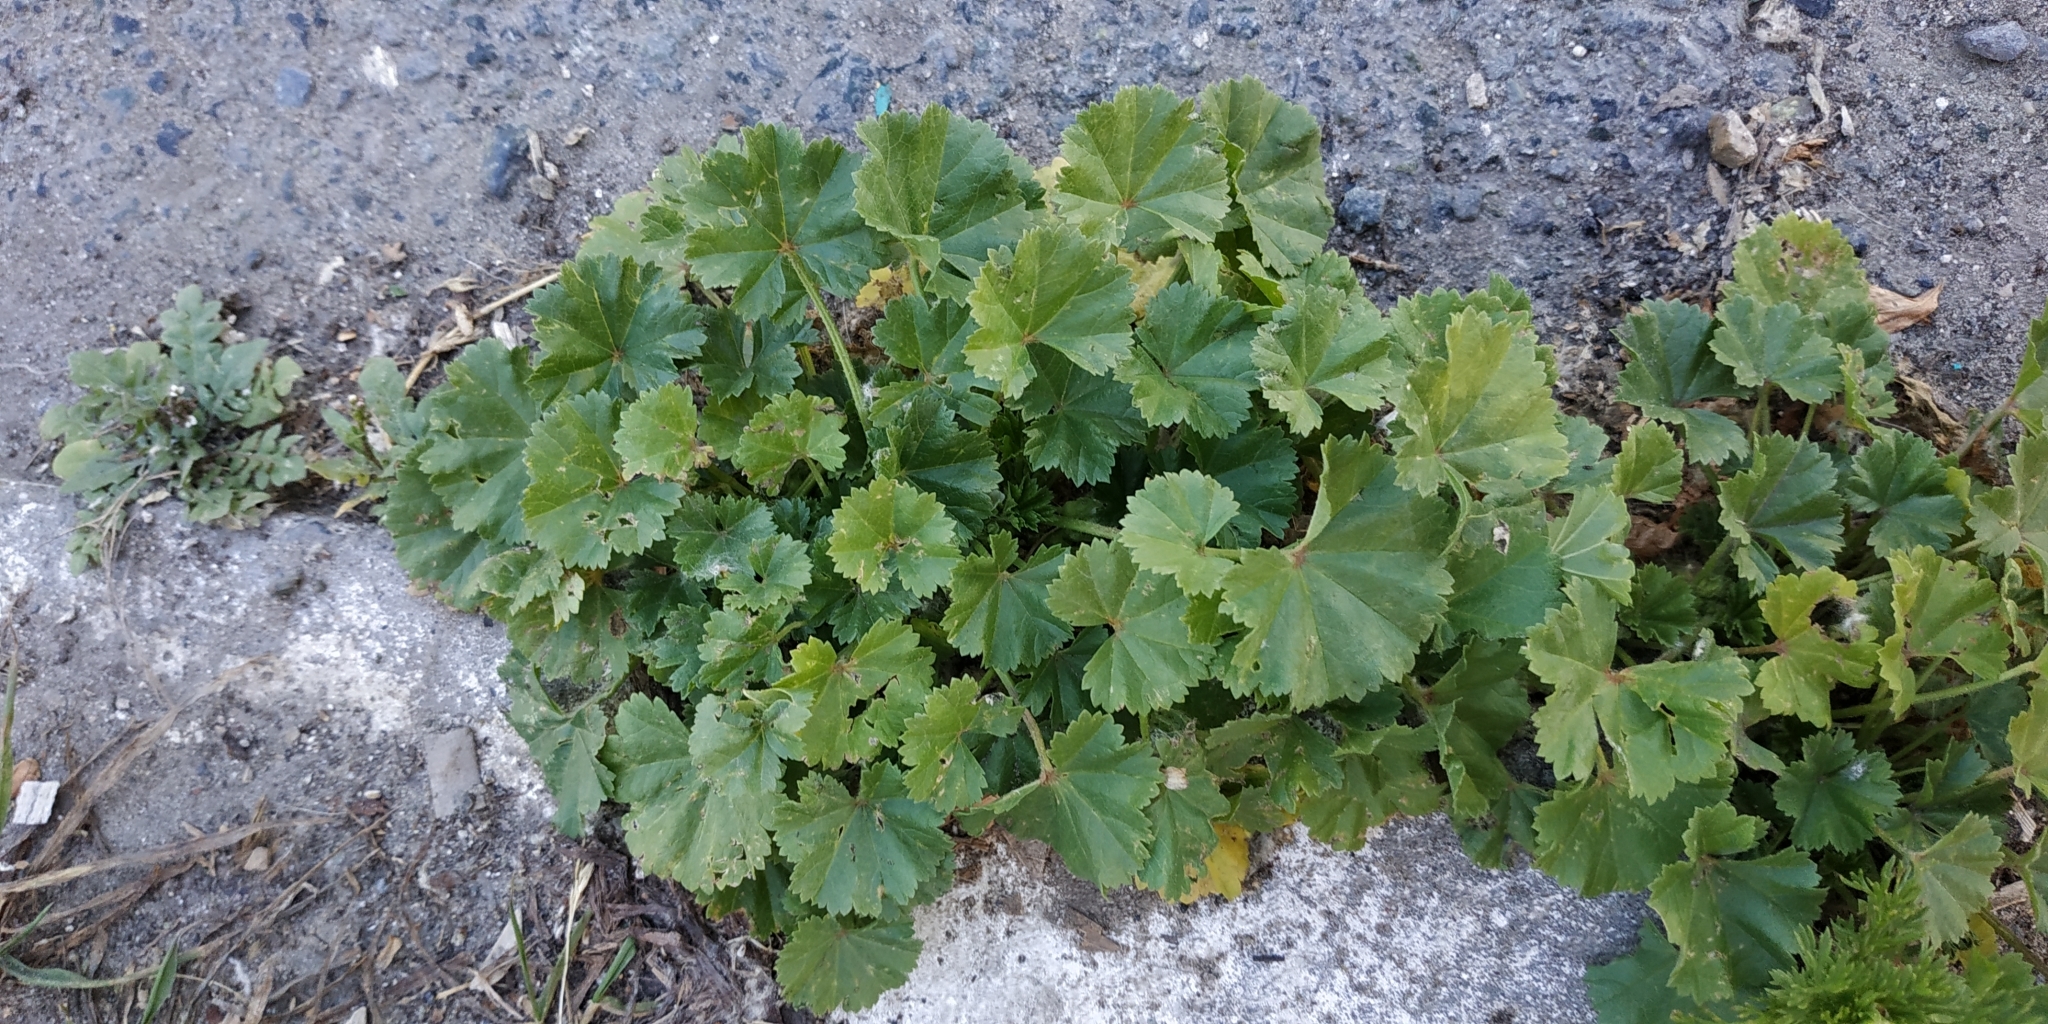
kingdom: Plantae
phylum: Tracheophyta
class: Magnoliopsida
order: Malvales
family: Malvaceae
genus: Malva
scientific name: Malva pusilla
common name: Small mallow
